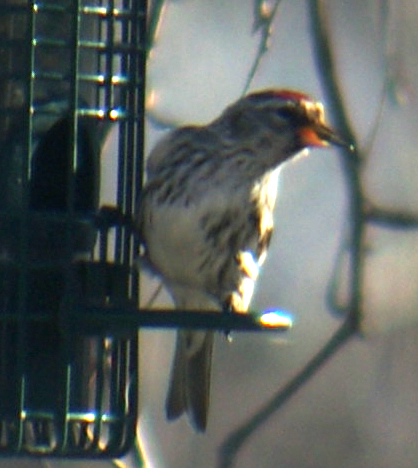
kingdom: Animalia
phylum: Chordata
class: Aves
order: Passeriformes
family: Fringillidae
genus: Acanthis
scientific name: Acanthis flammea
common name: Common redpoll
